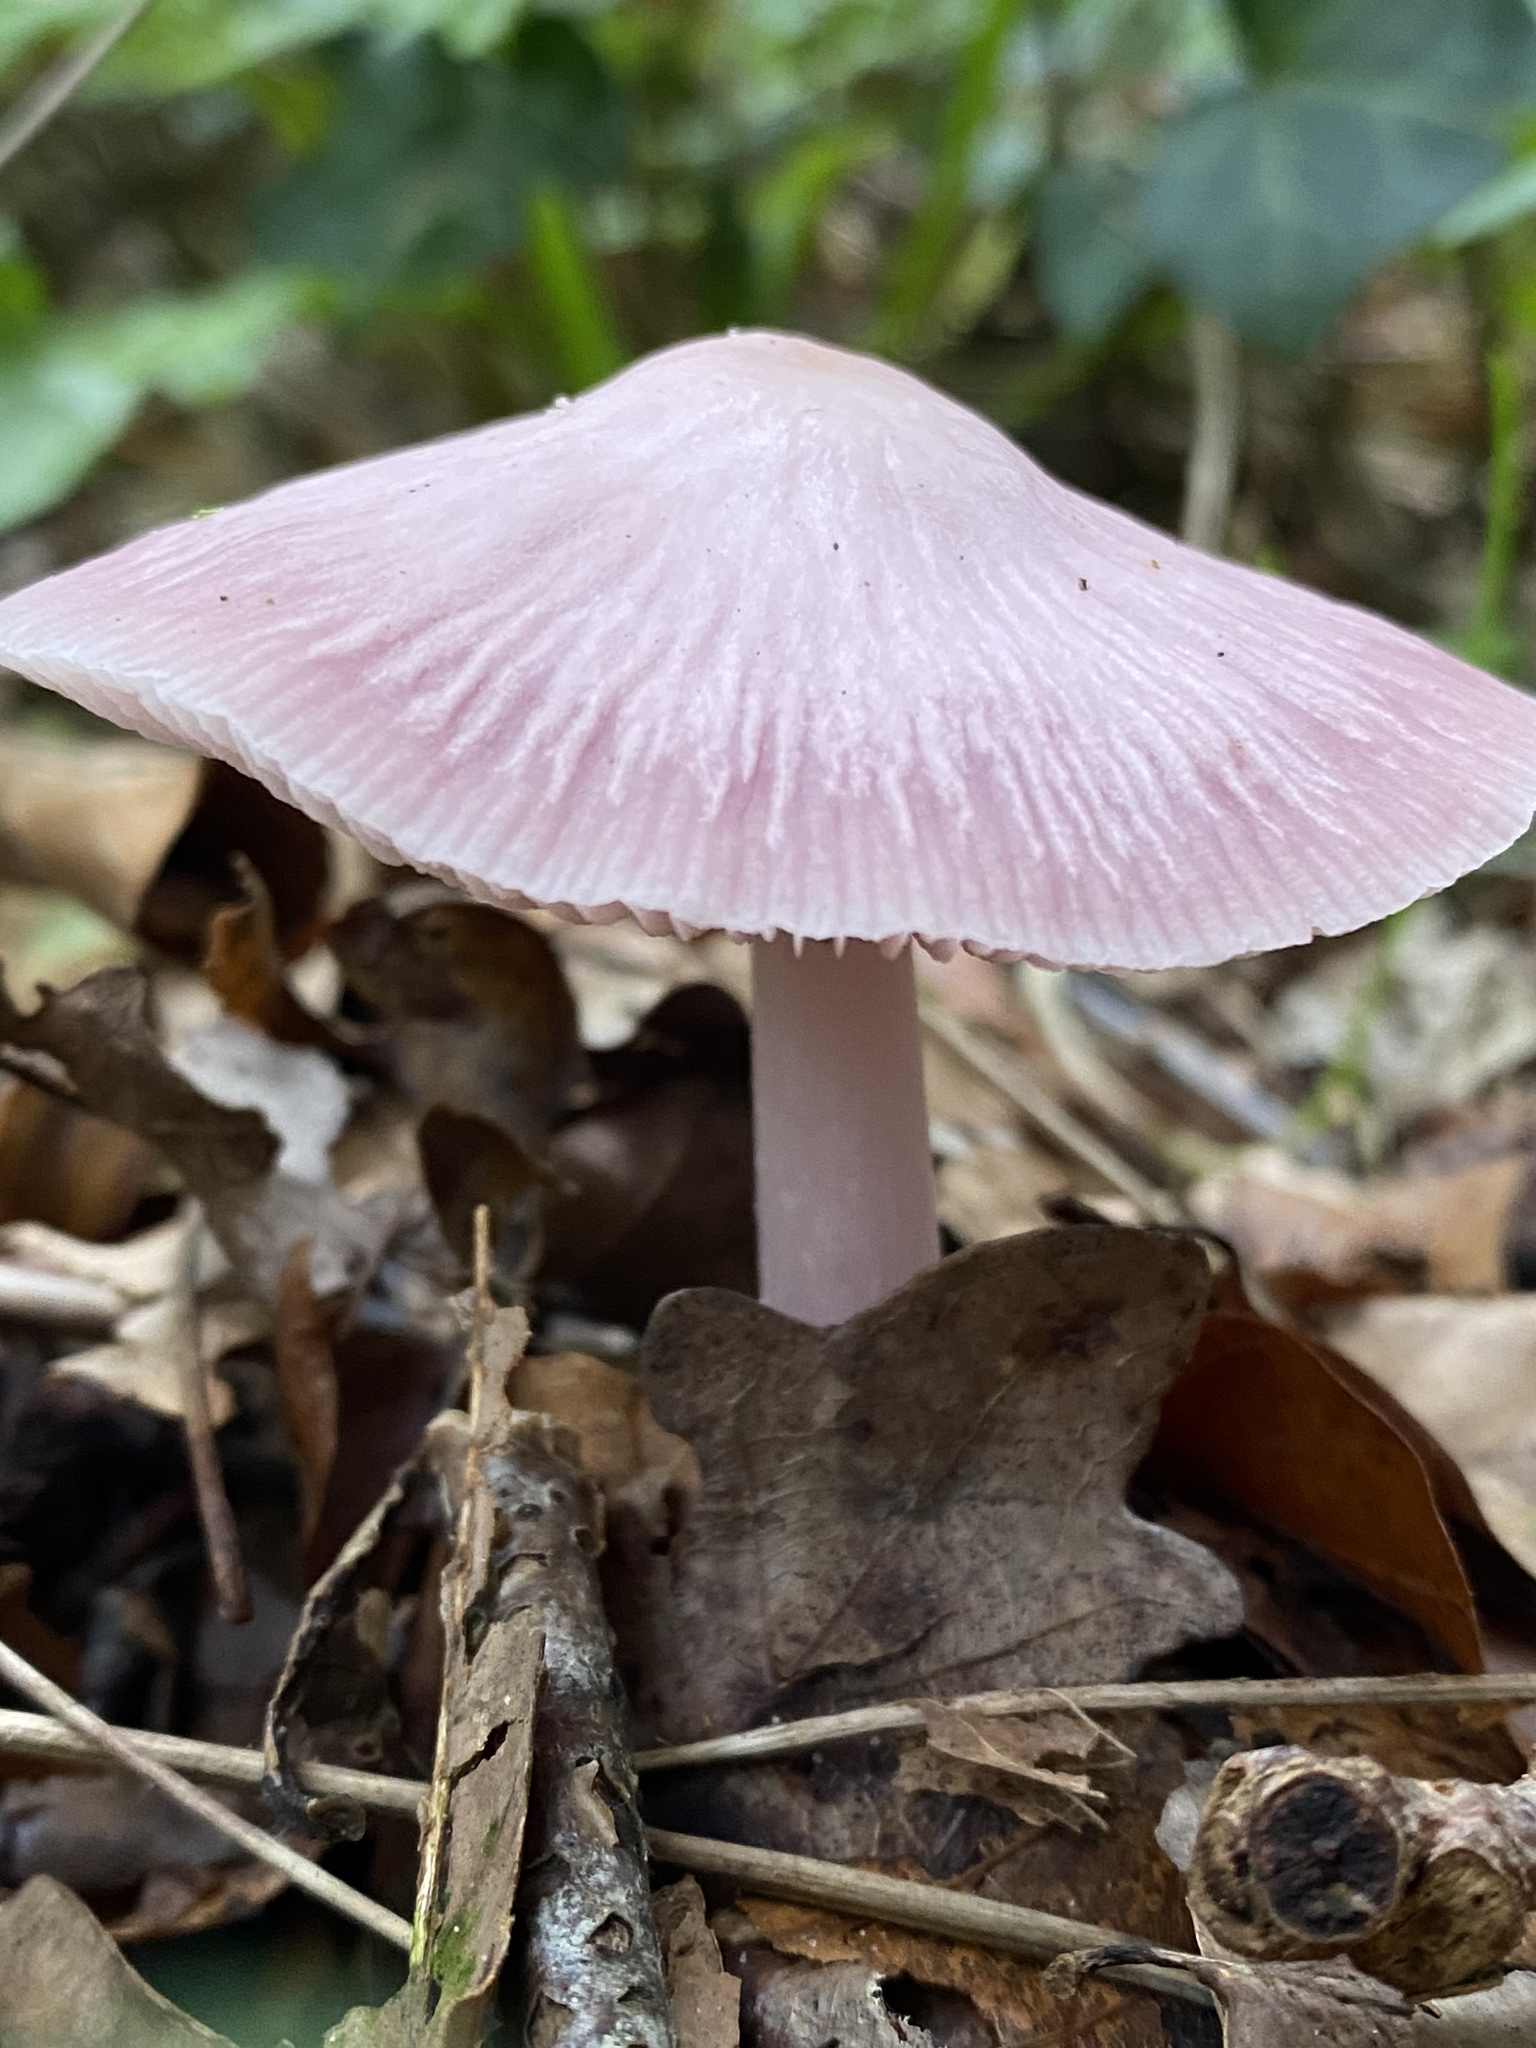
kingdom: Fungi
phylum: Basidiomycota
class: Agaricomycetes
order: Agaricales
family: Mycenaceae
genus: Mycena
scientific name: Mycena rosea
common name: Rosy bonnet
